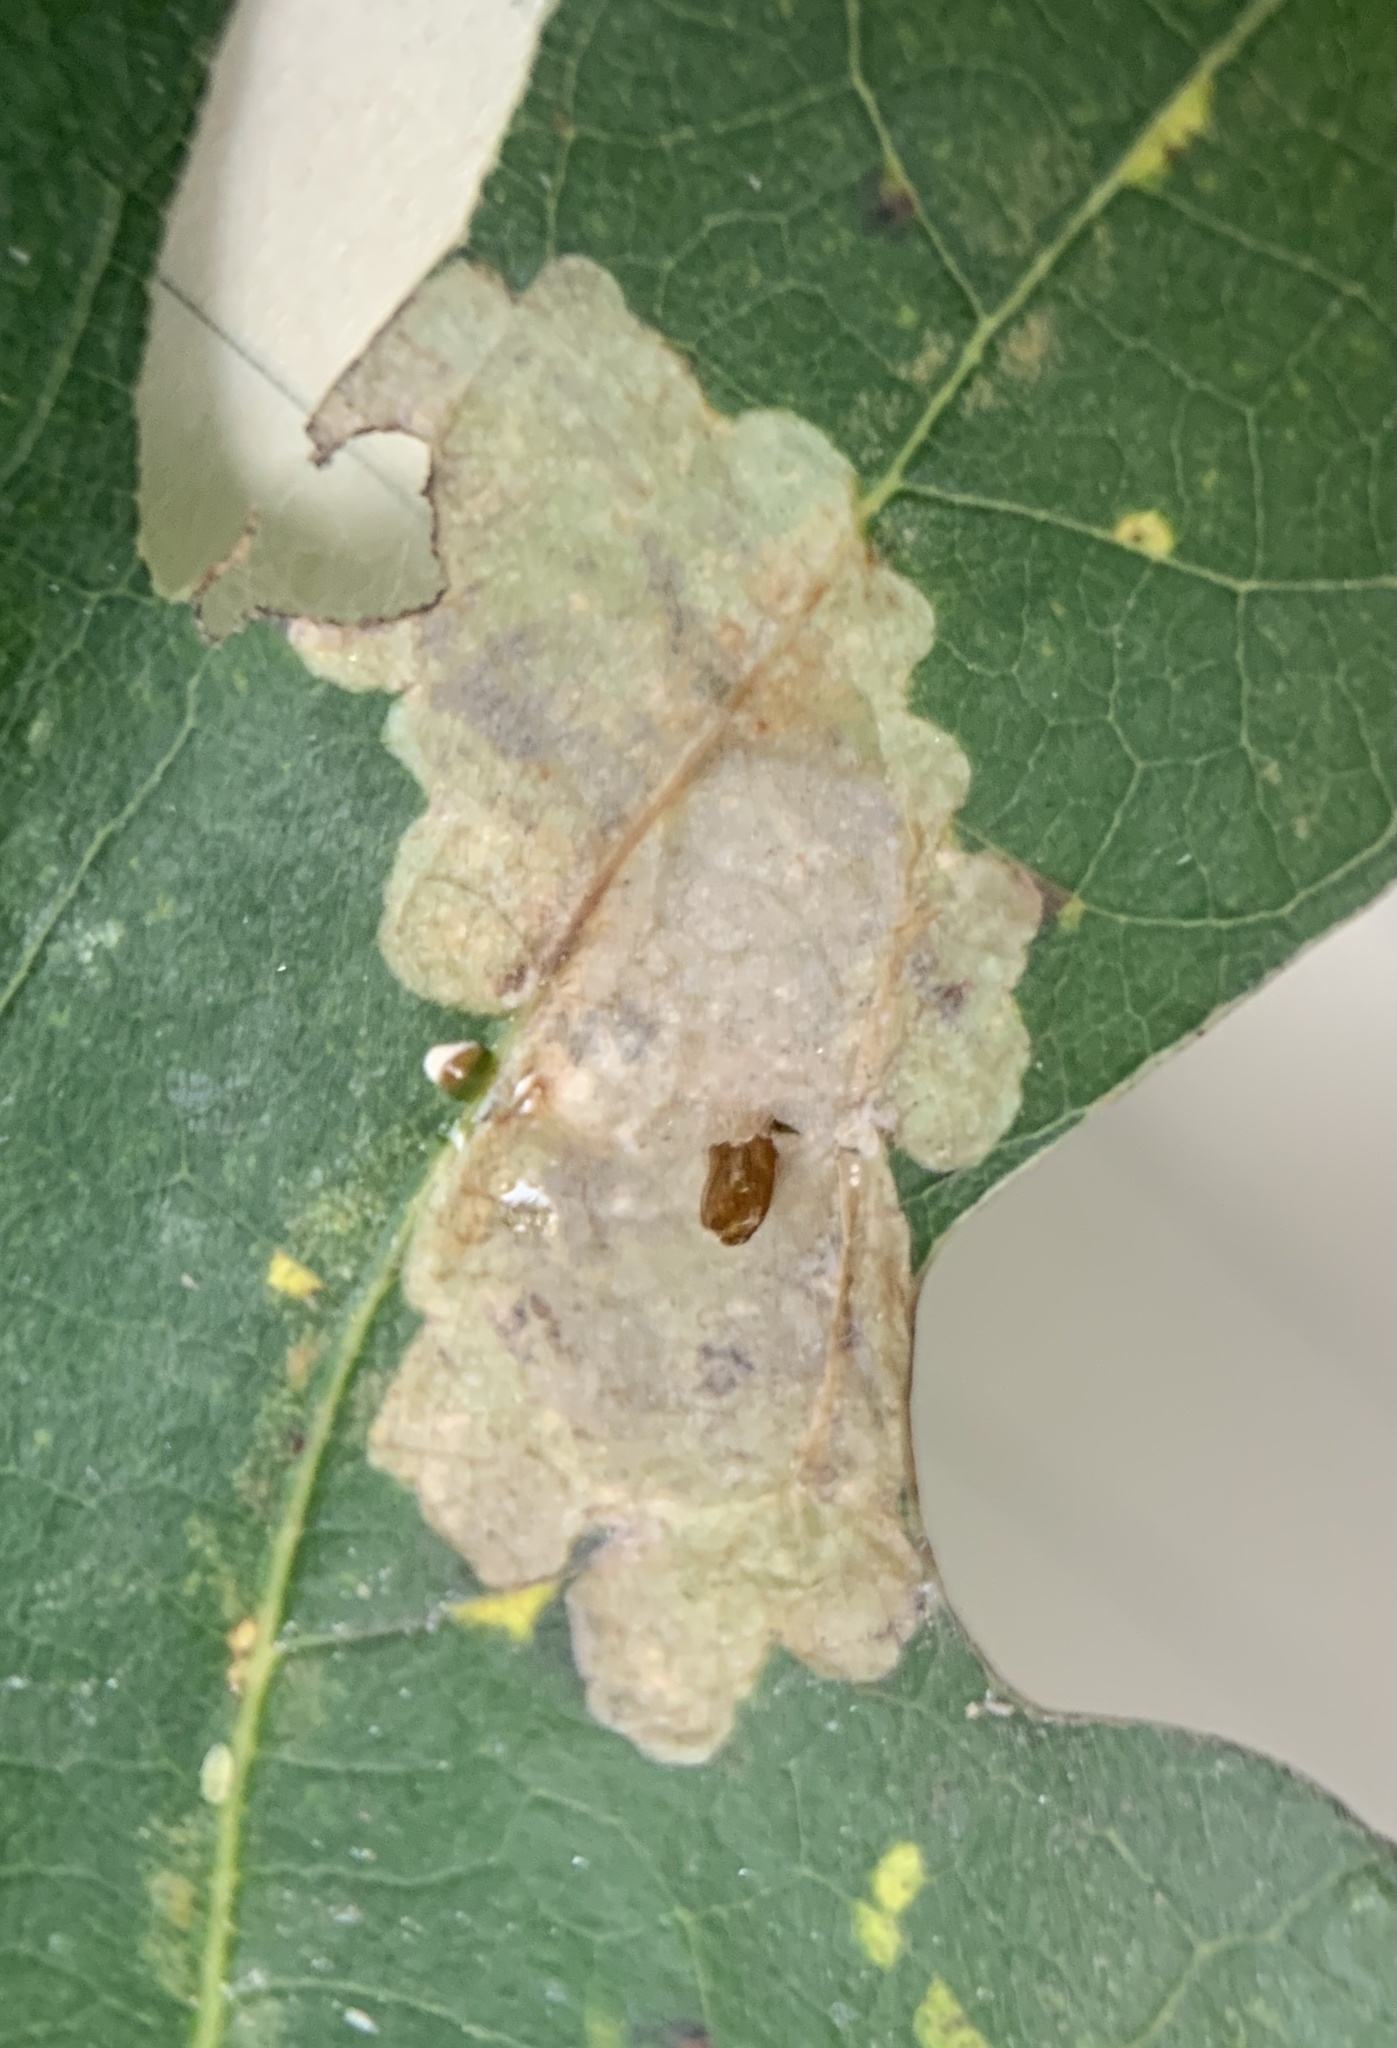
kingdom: Animalia
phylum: Arthropoda
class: Insecta
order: Lepidoptera
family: Gracillariidae
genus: Cameraria
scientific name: Cameraria hamadryadella
